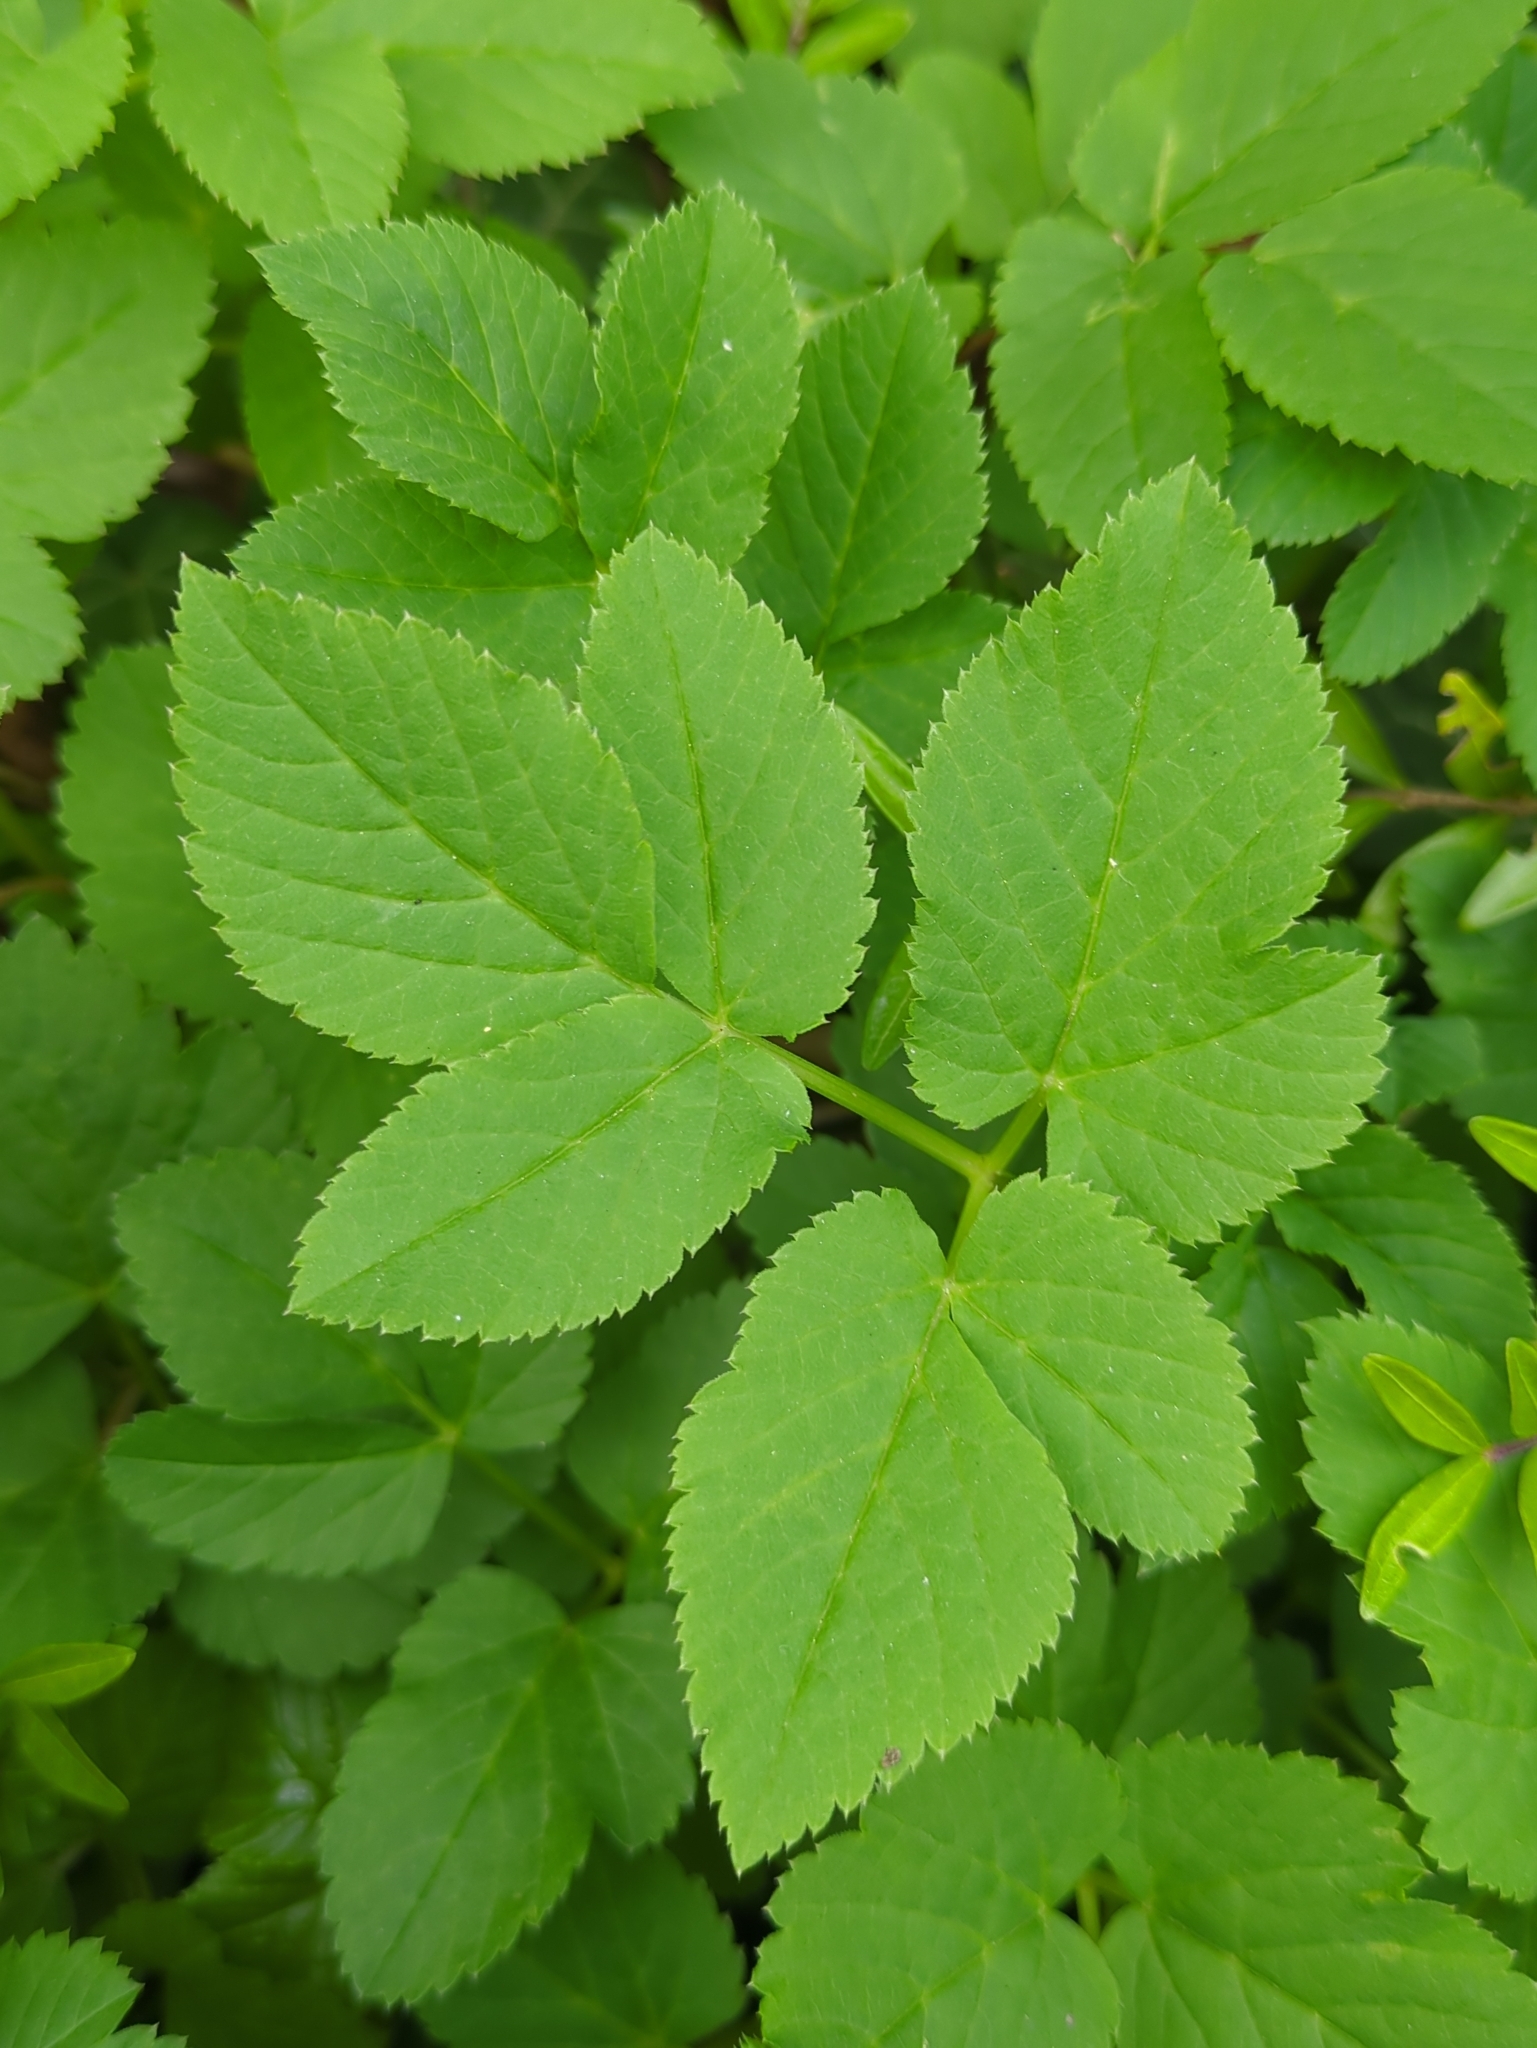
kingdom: Plantae
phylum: Tracheophyta
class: Magnoliopsida
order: Apiales
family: Apiaceae
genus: Aegopodium
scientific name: Aegopodium podagraria
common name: Ground-elder
